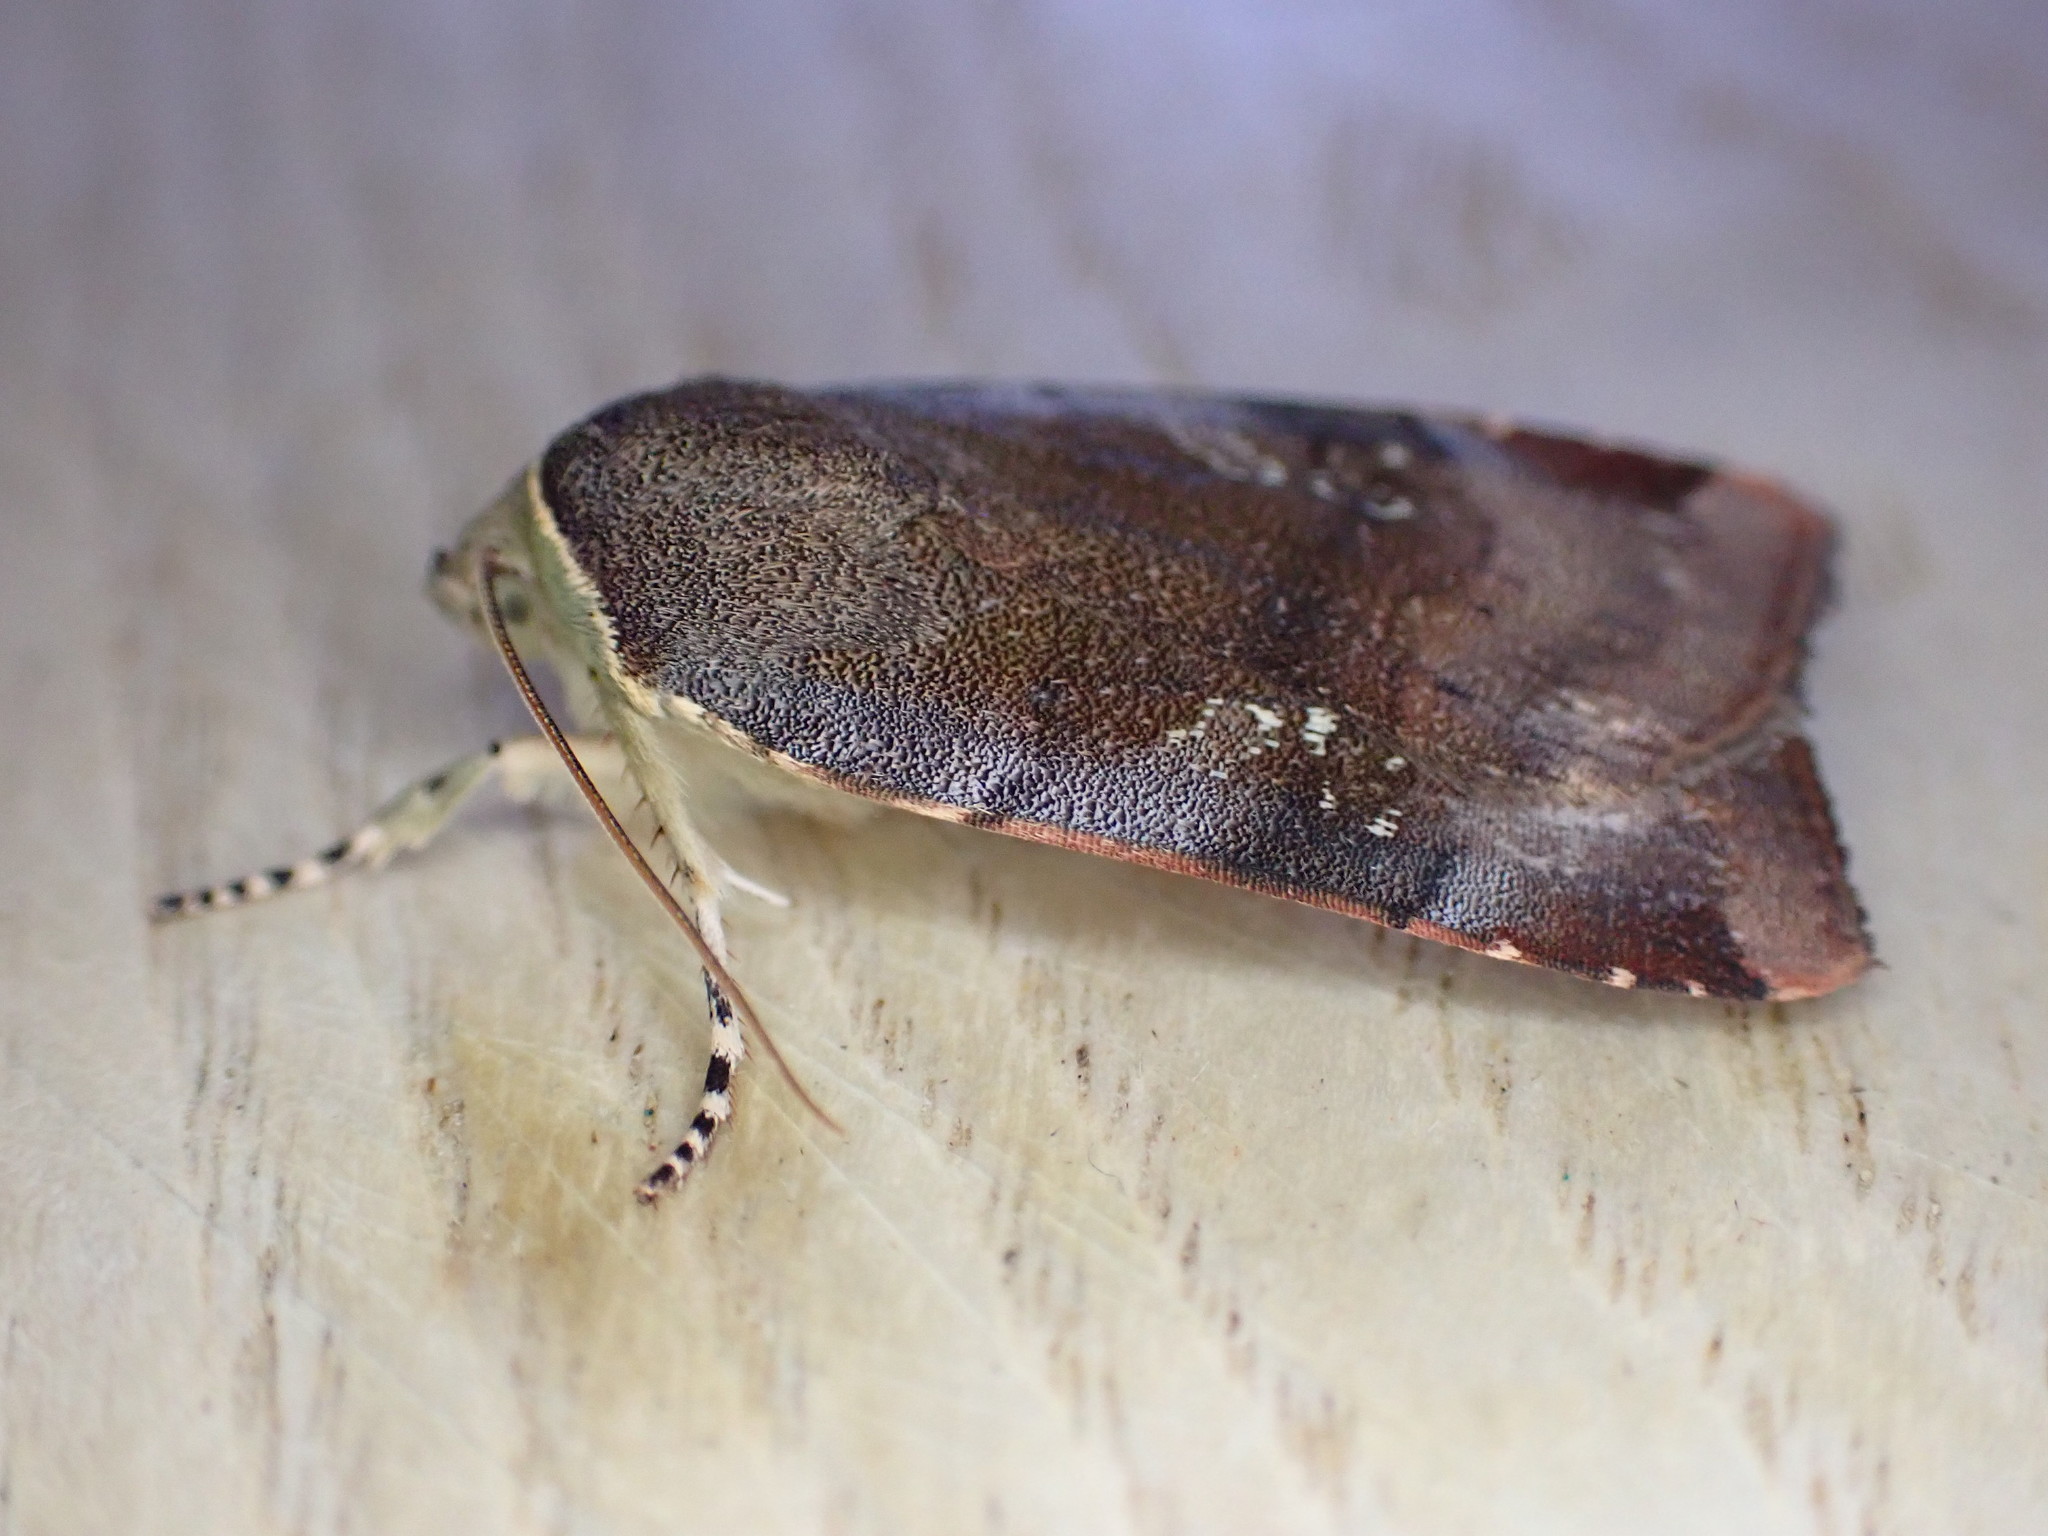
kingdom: Animalia
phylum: Arthropoda
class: Insecta
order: Lepidoptera
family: Noctuidae
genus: Noctua
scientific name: Noctua janthe
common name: Lesser broad-bordered yellow underwing
